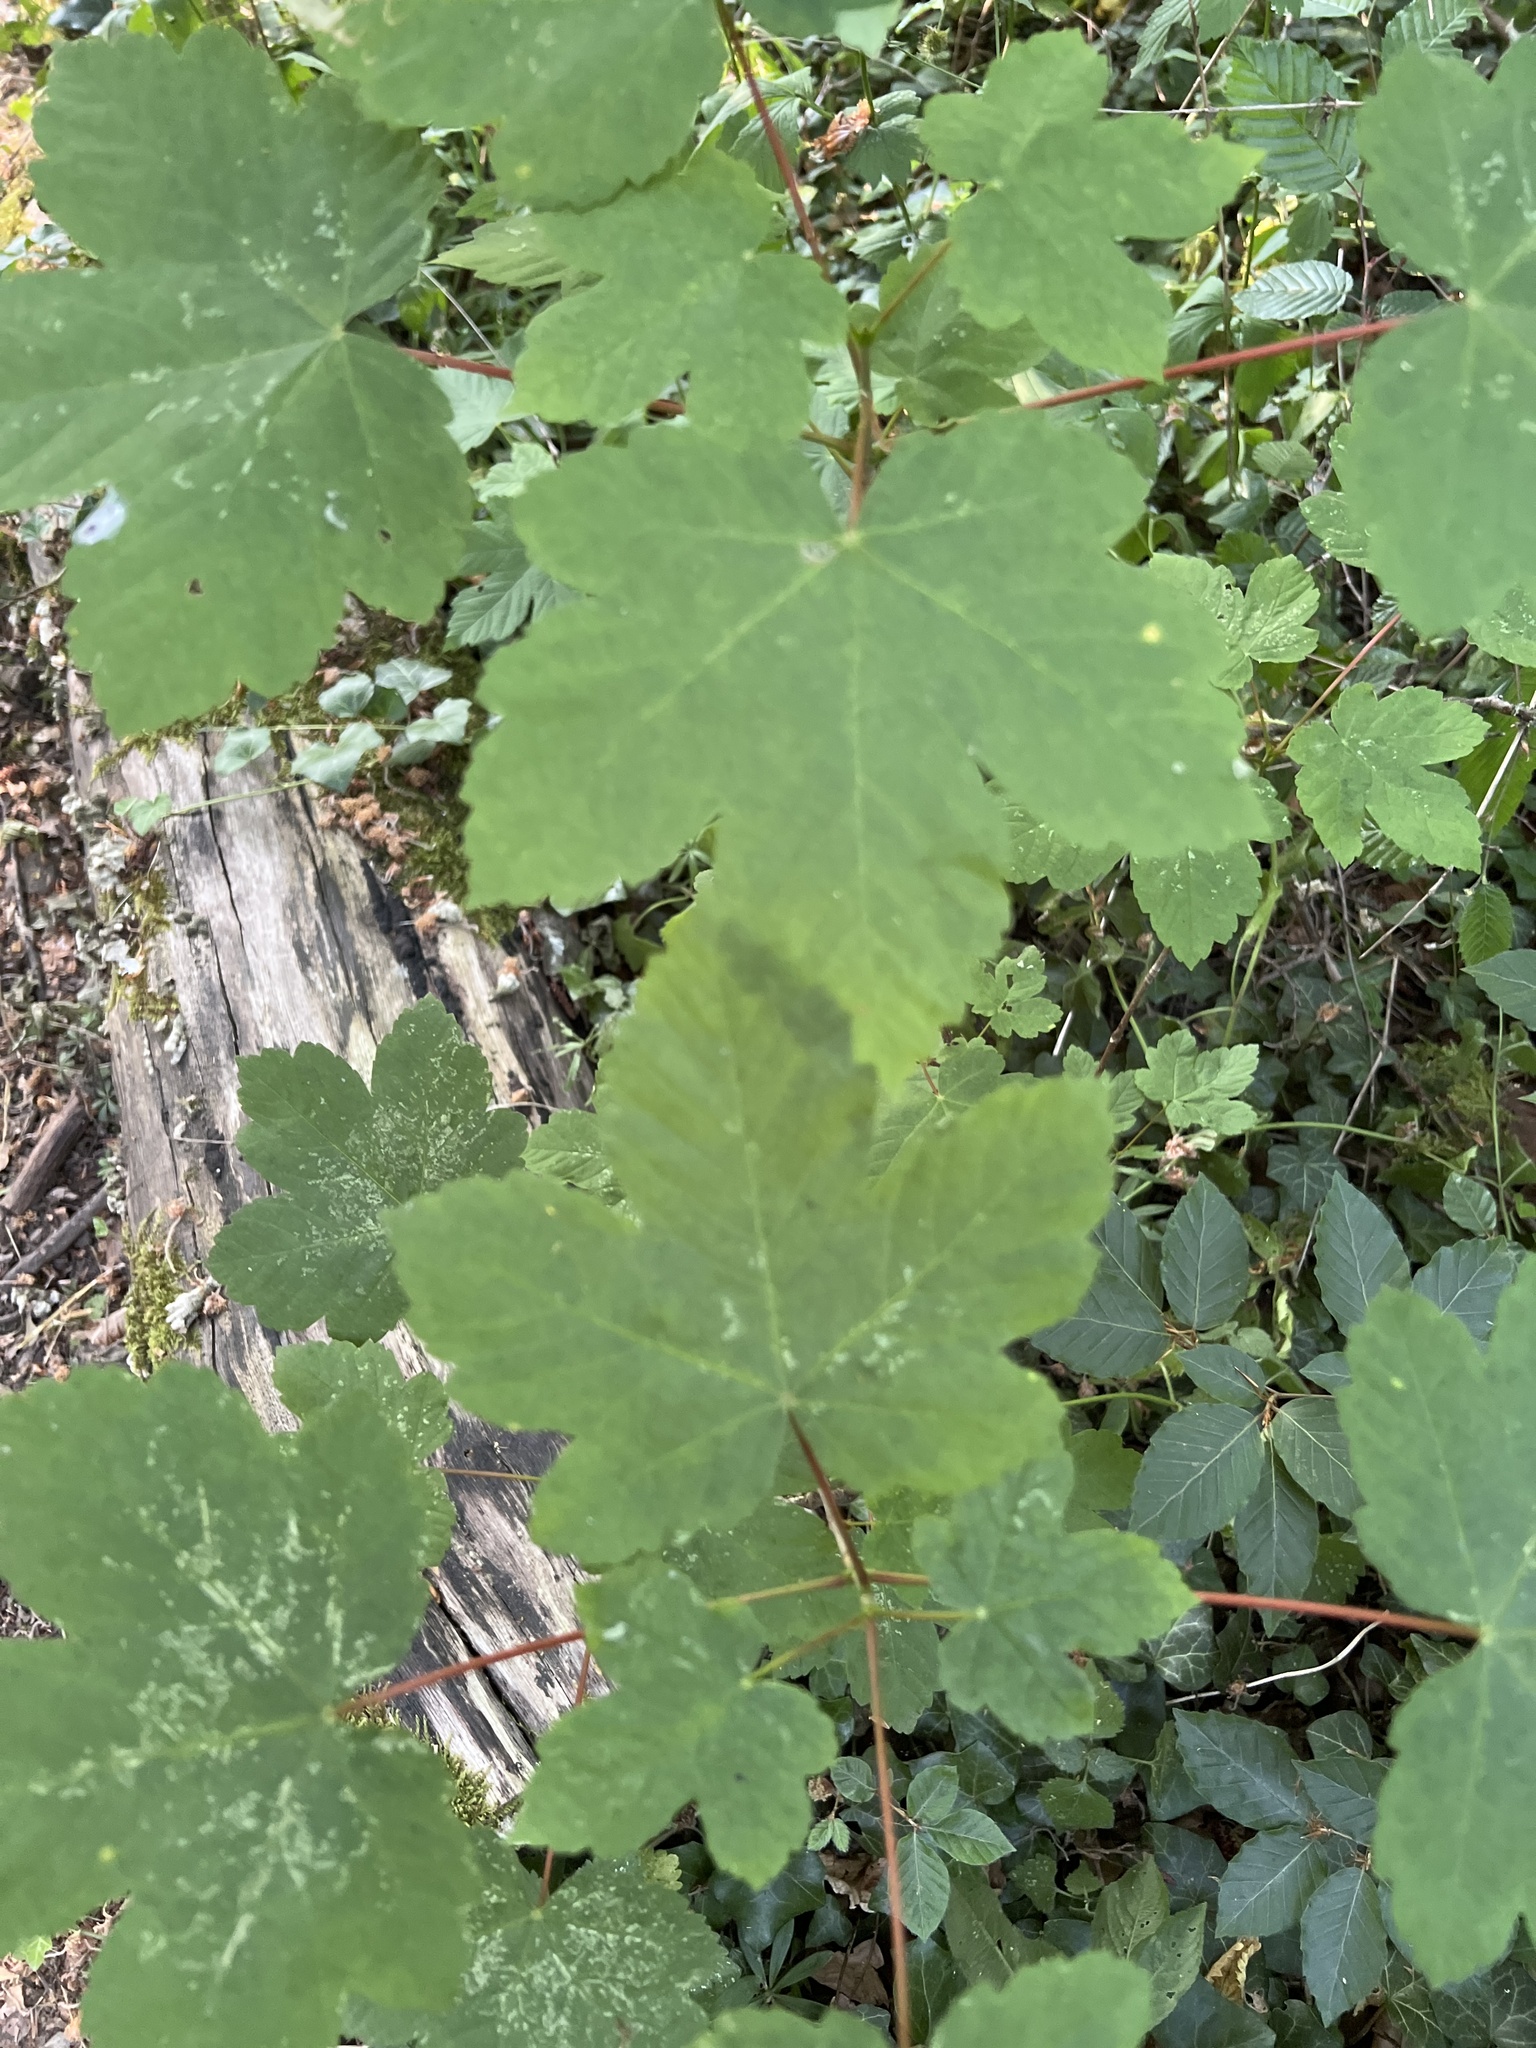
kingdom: Plantae
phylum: Tracheophyta
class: Magnoliopsida
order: Sapindales
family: Sapindaceae
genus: Acer
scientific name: Acer pseudoplatanus
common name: Sycamore
